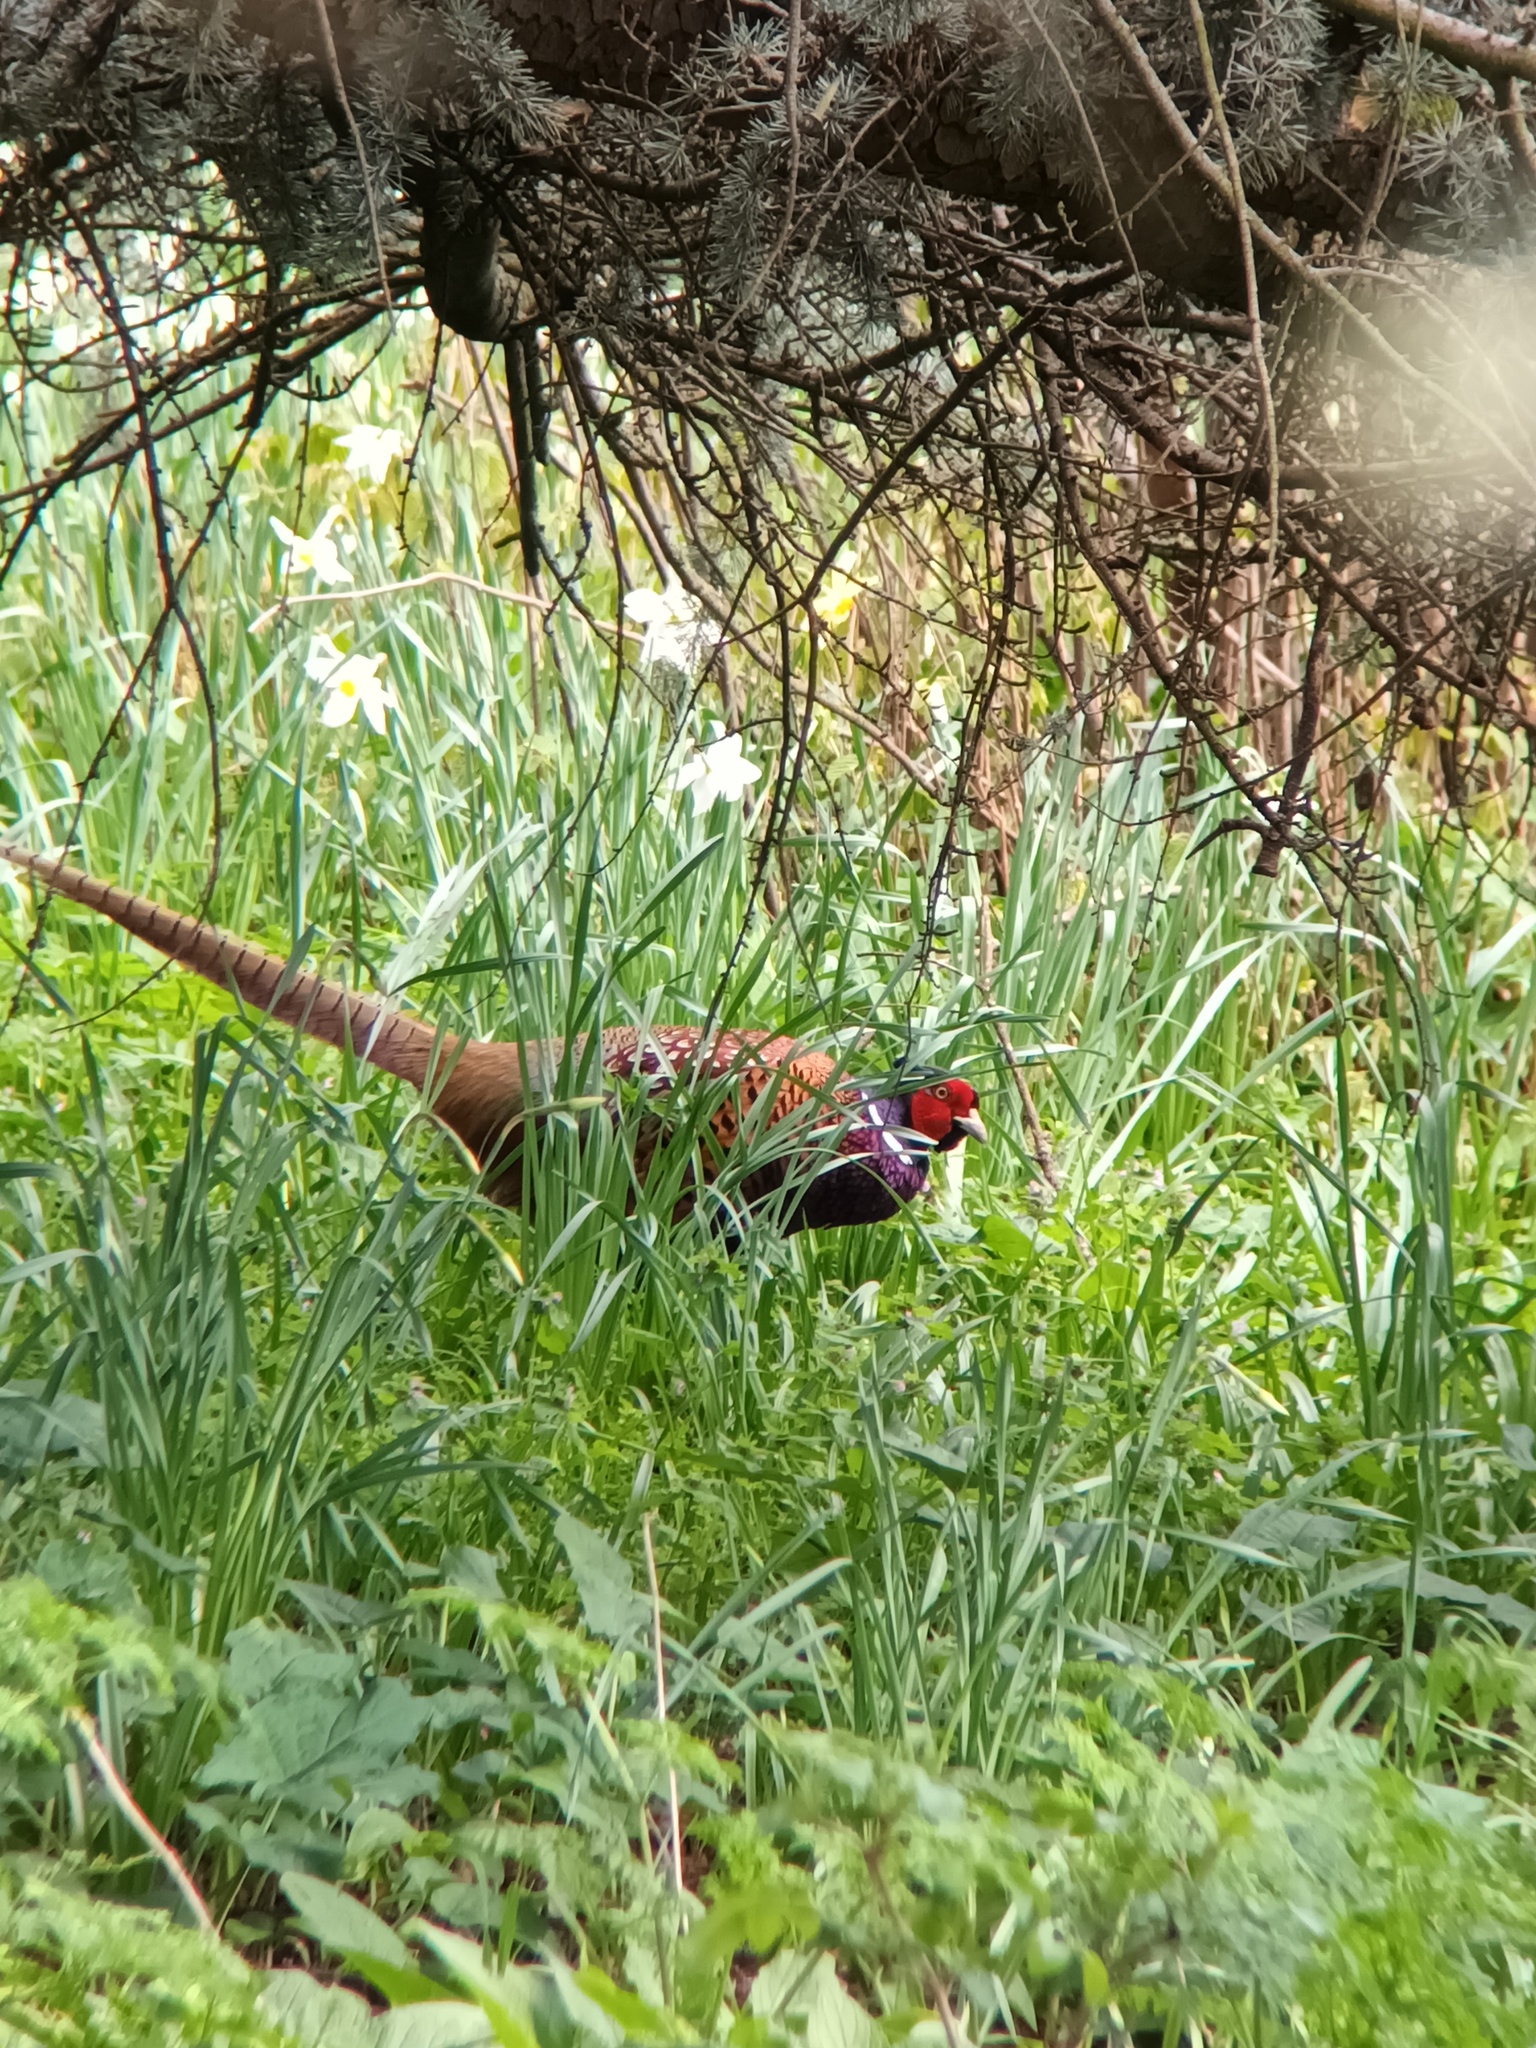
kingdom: Animalia
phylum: Chordata
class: Aves
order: Galliformes
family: Phasianidae
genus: Phasianus
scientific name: Phasianus colchicus
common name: Common pheasant
